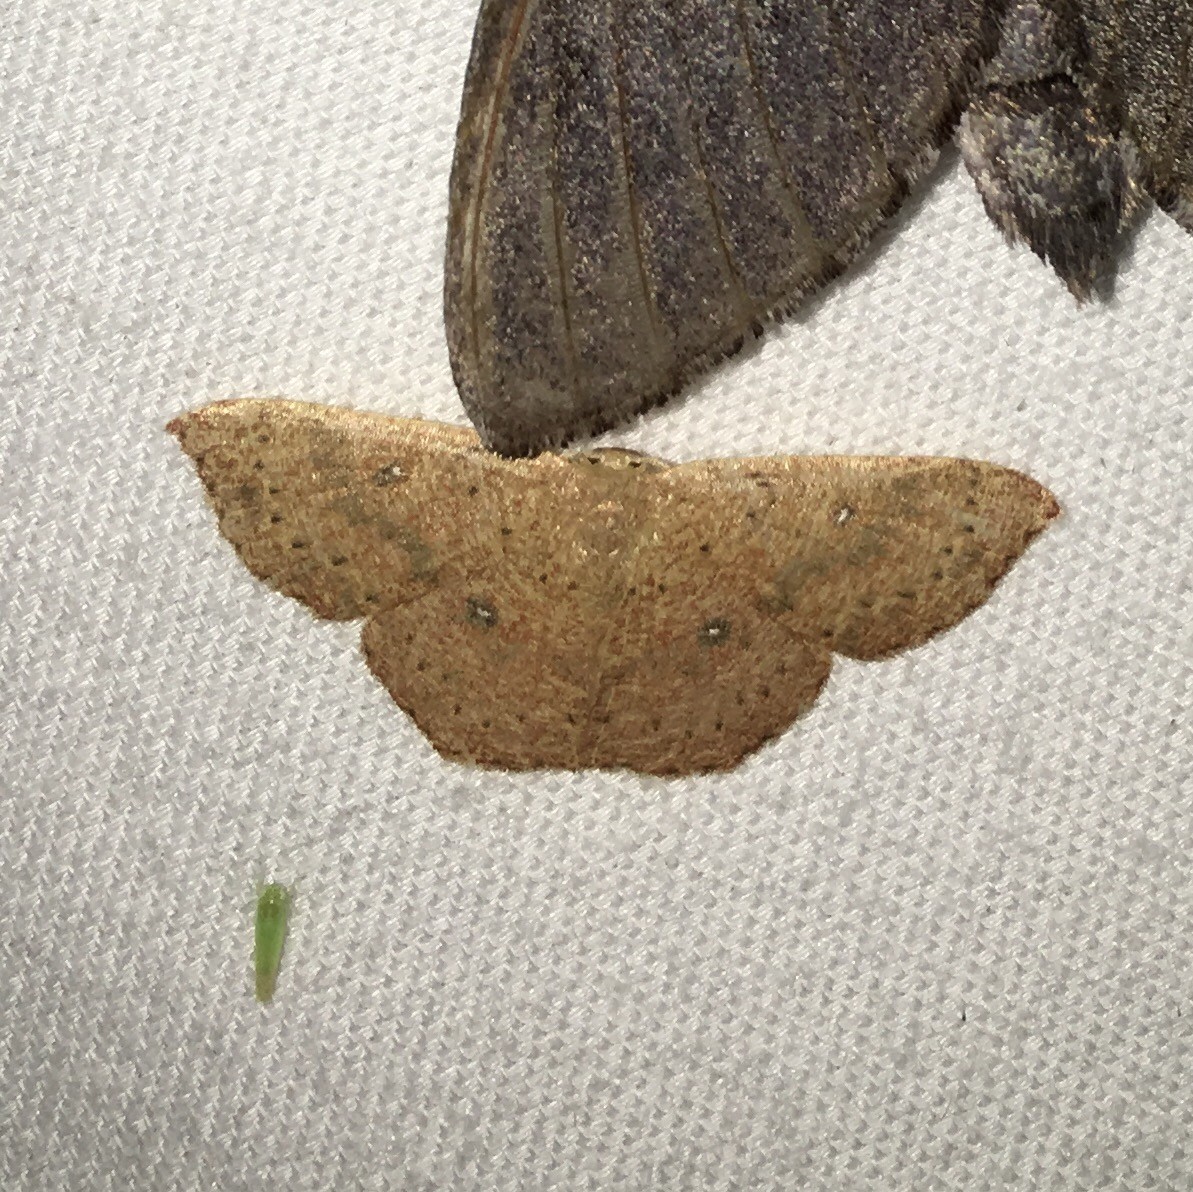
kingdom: Animalia
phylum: Arthropoda
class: Insecta
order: Lepidoptera
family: Geometridae
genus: Cyclophora
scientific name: Cyclophora packardi
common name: Packard's wave
